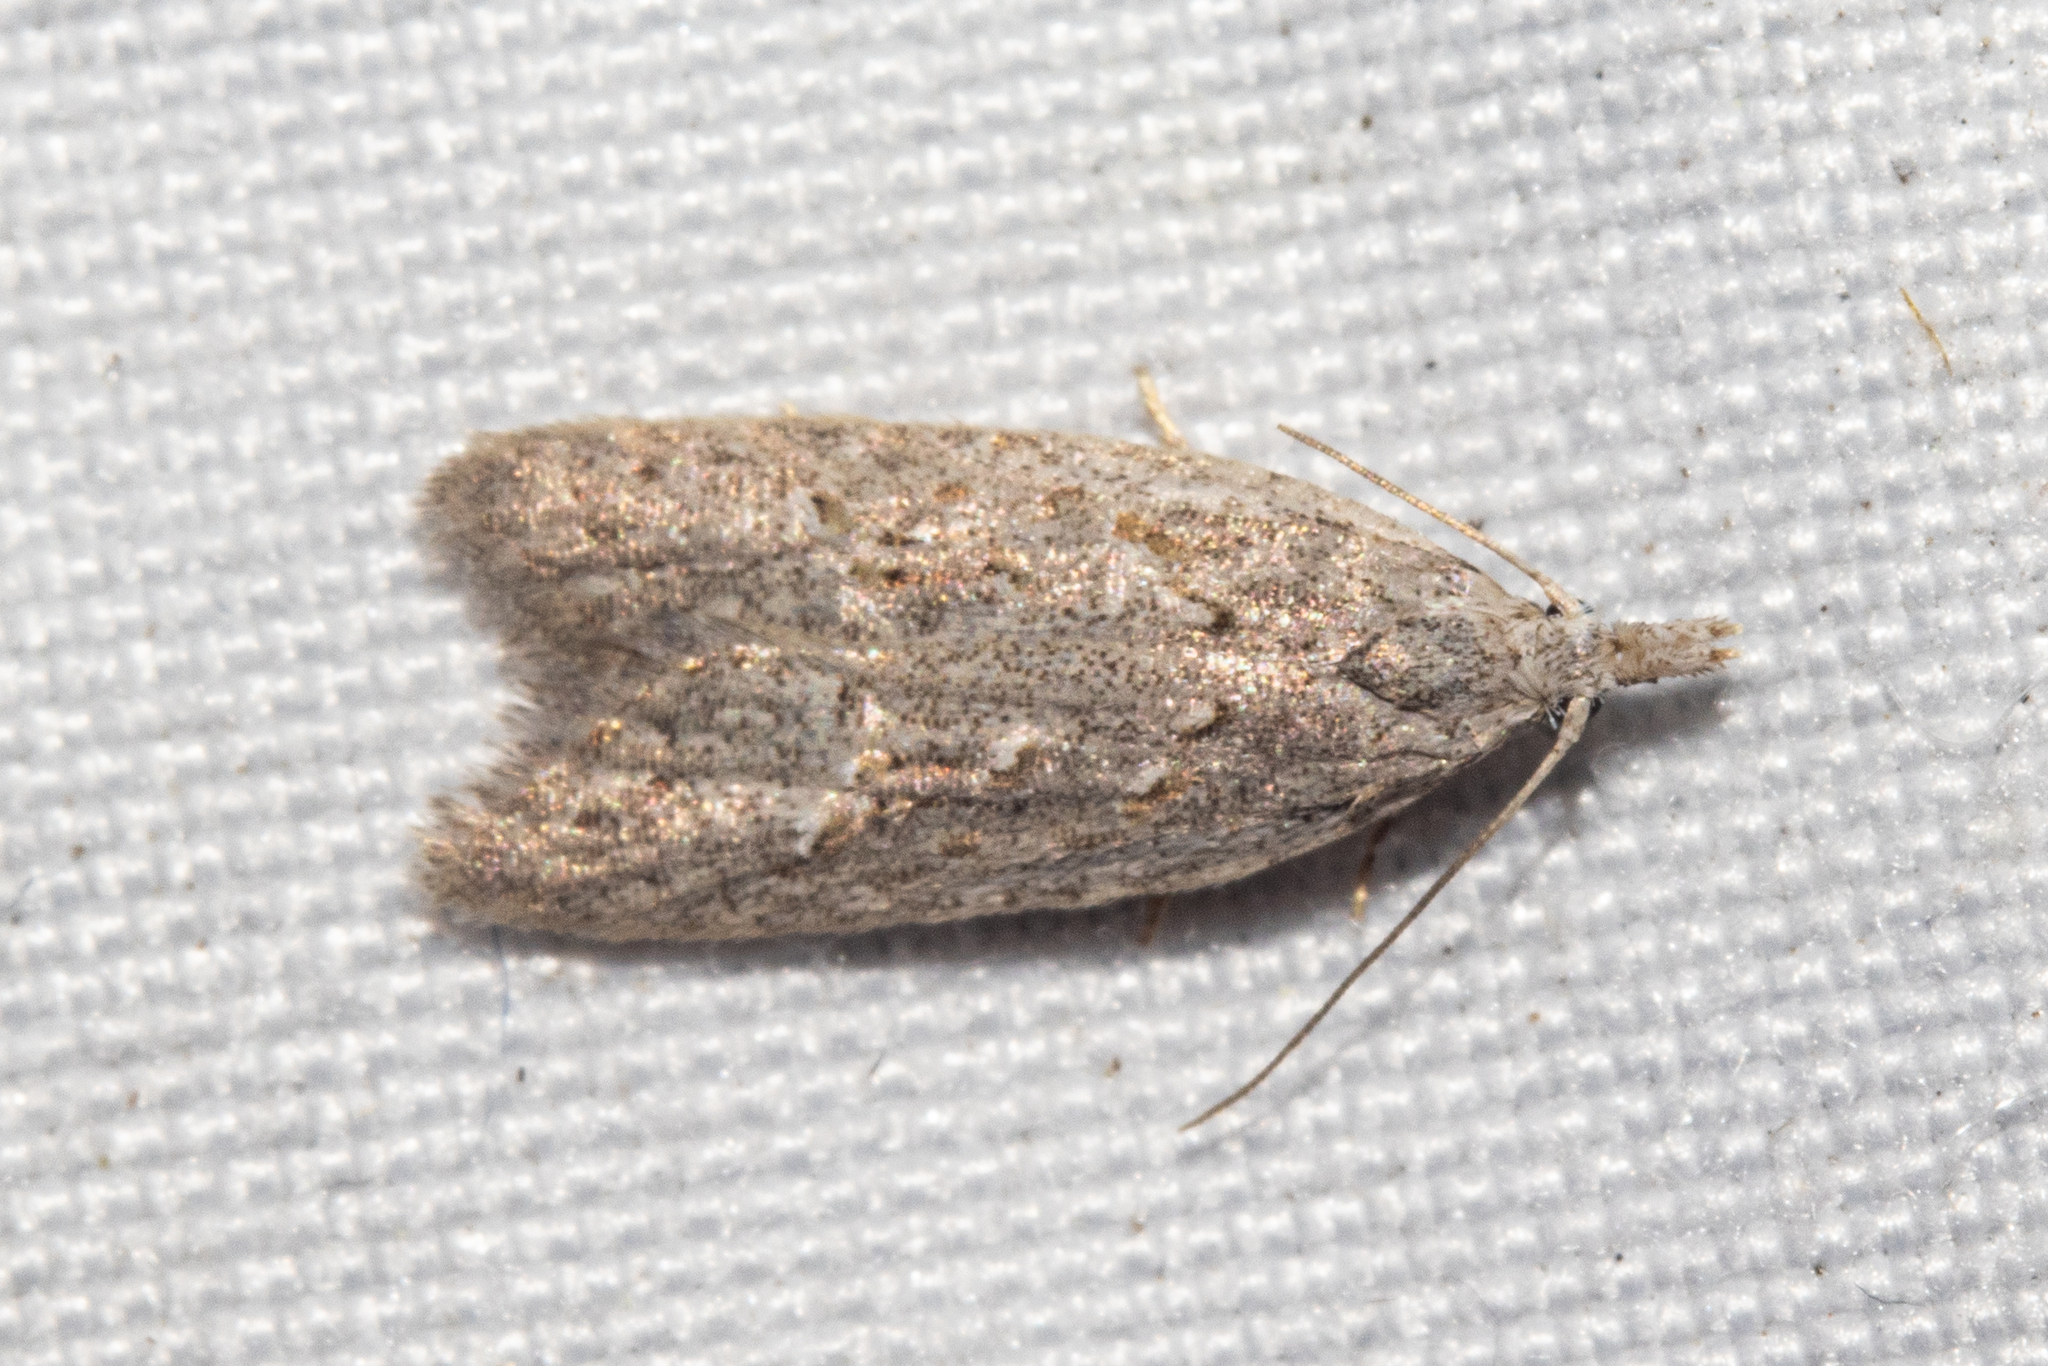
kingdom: Animalia
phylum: Arthropoda
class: Insecta
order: Lepidoptera
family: Carposinidae
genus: Carposina
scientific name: Carposina rubophaga
